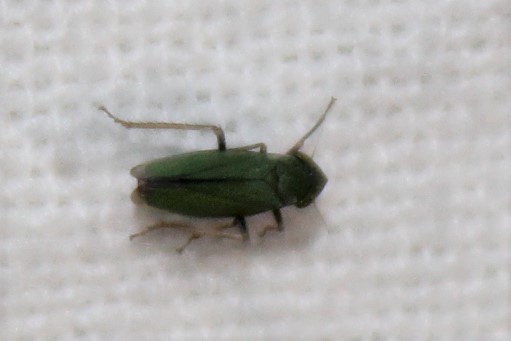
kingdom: Animalia
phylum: Arthropoda
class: Insecta
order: Hemiptera
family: Cicadellidae
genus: Helochara
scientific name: Helochara communis
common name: Bog leafhopper
